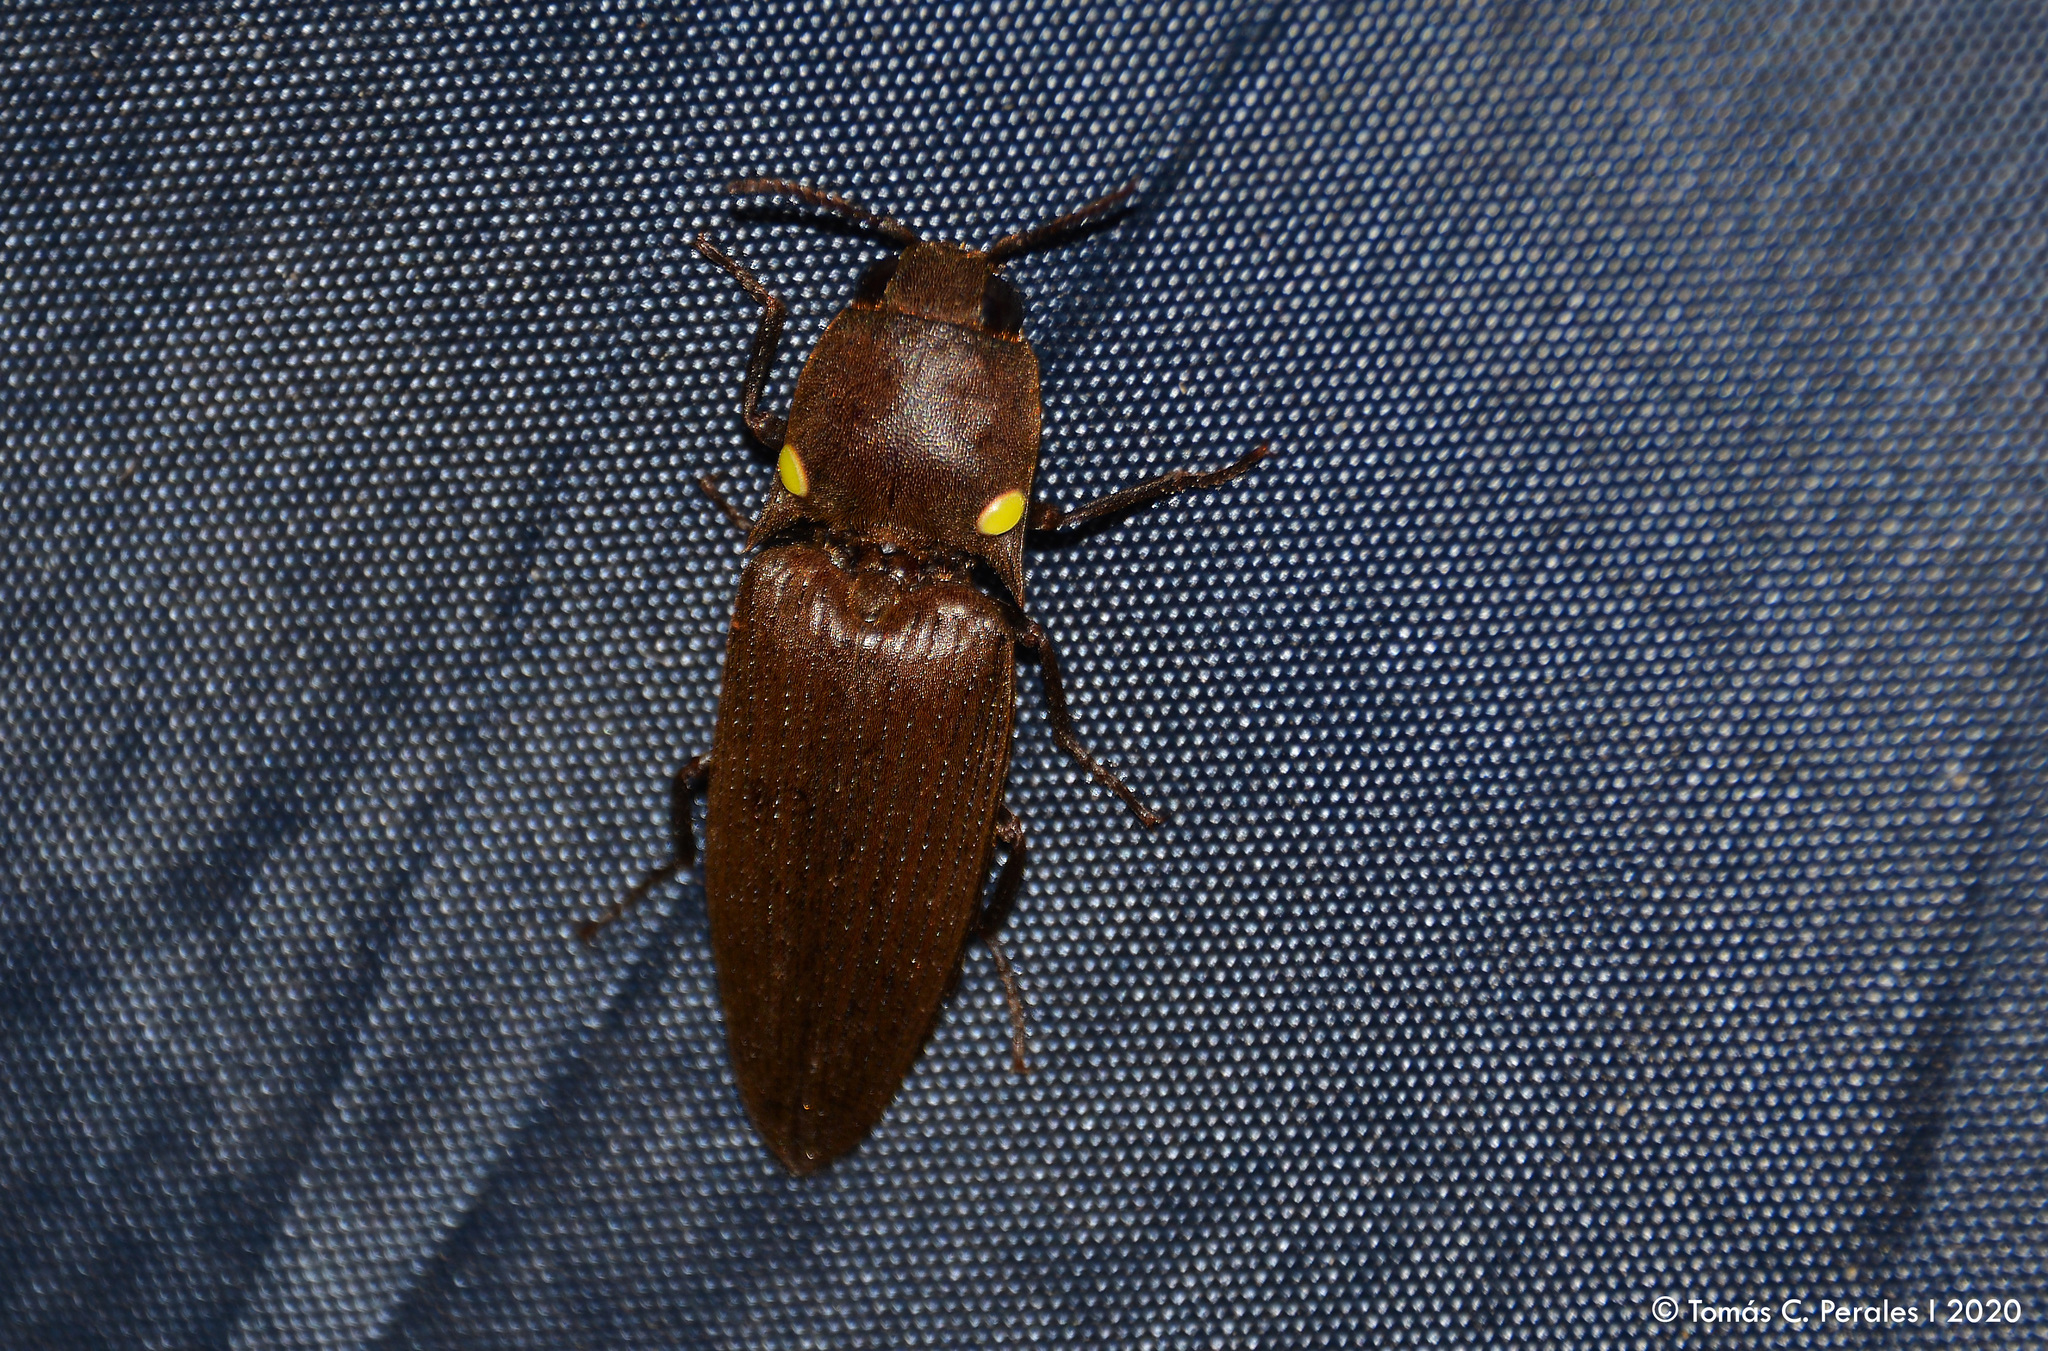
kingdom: Animalia
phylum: Arthropoda
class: Insecta
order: Coleoptera
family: Elateridae
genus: Pyrophorus
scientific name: Pyrophorus
